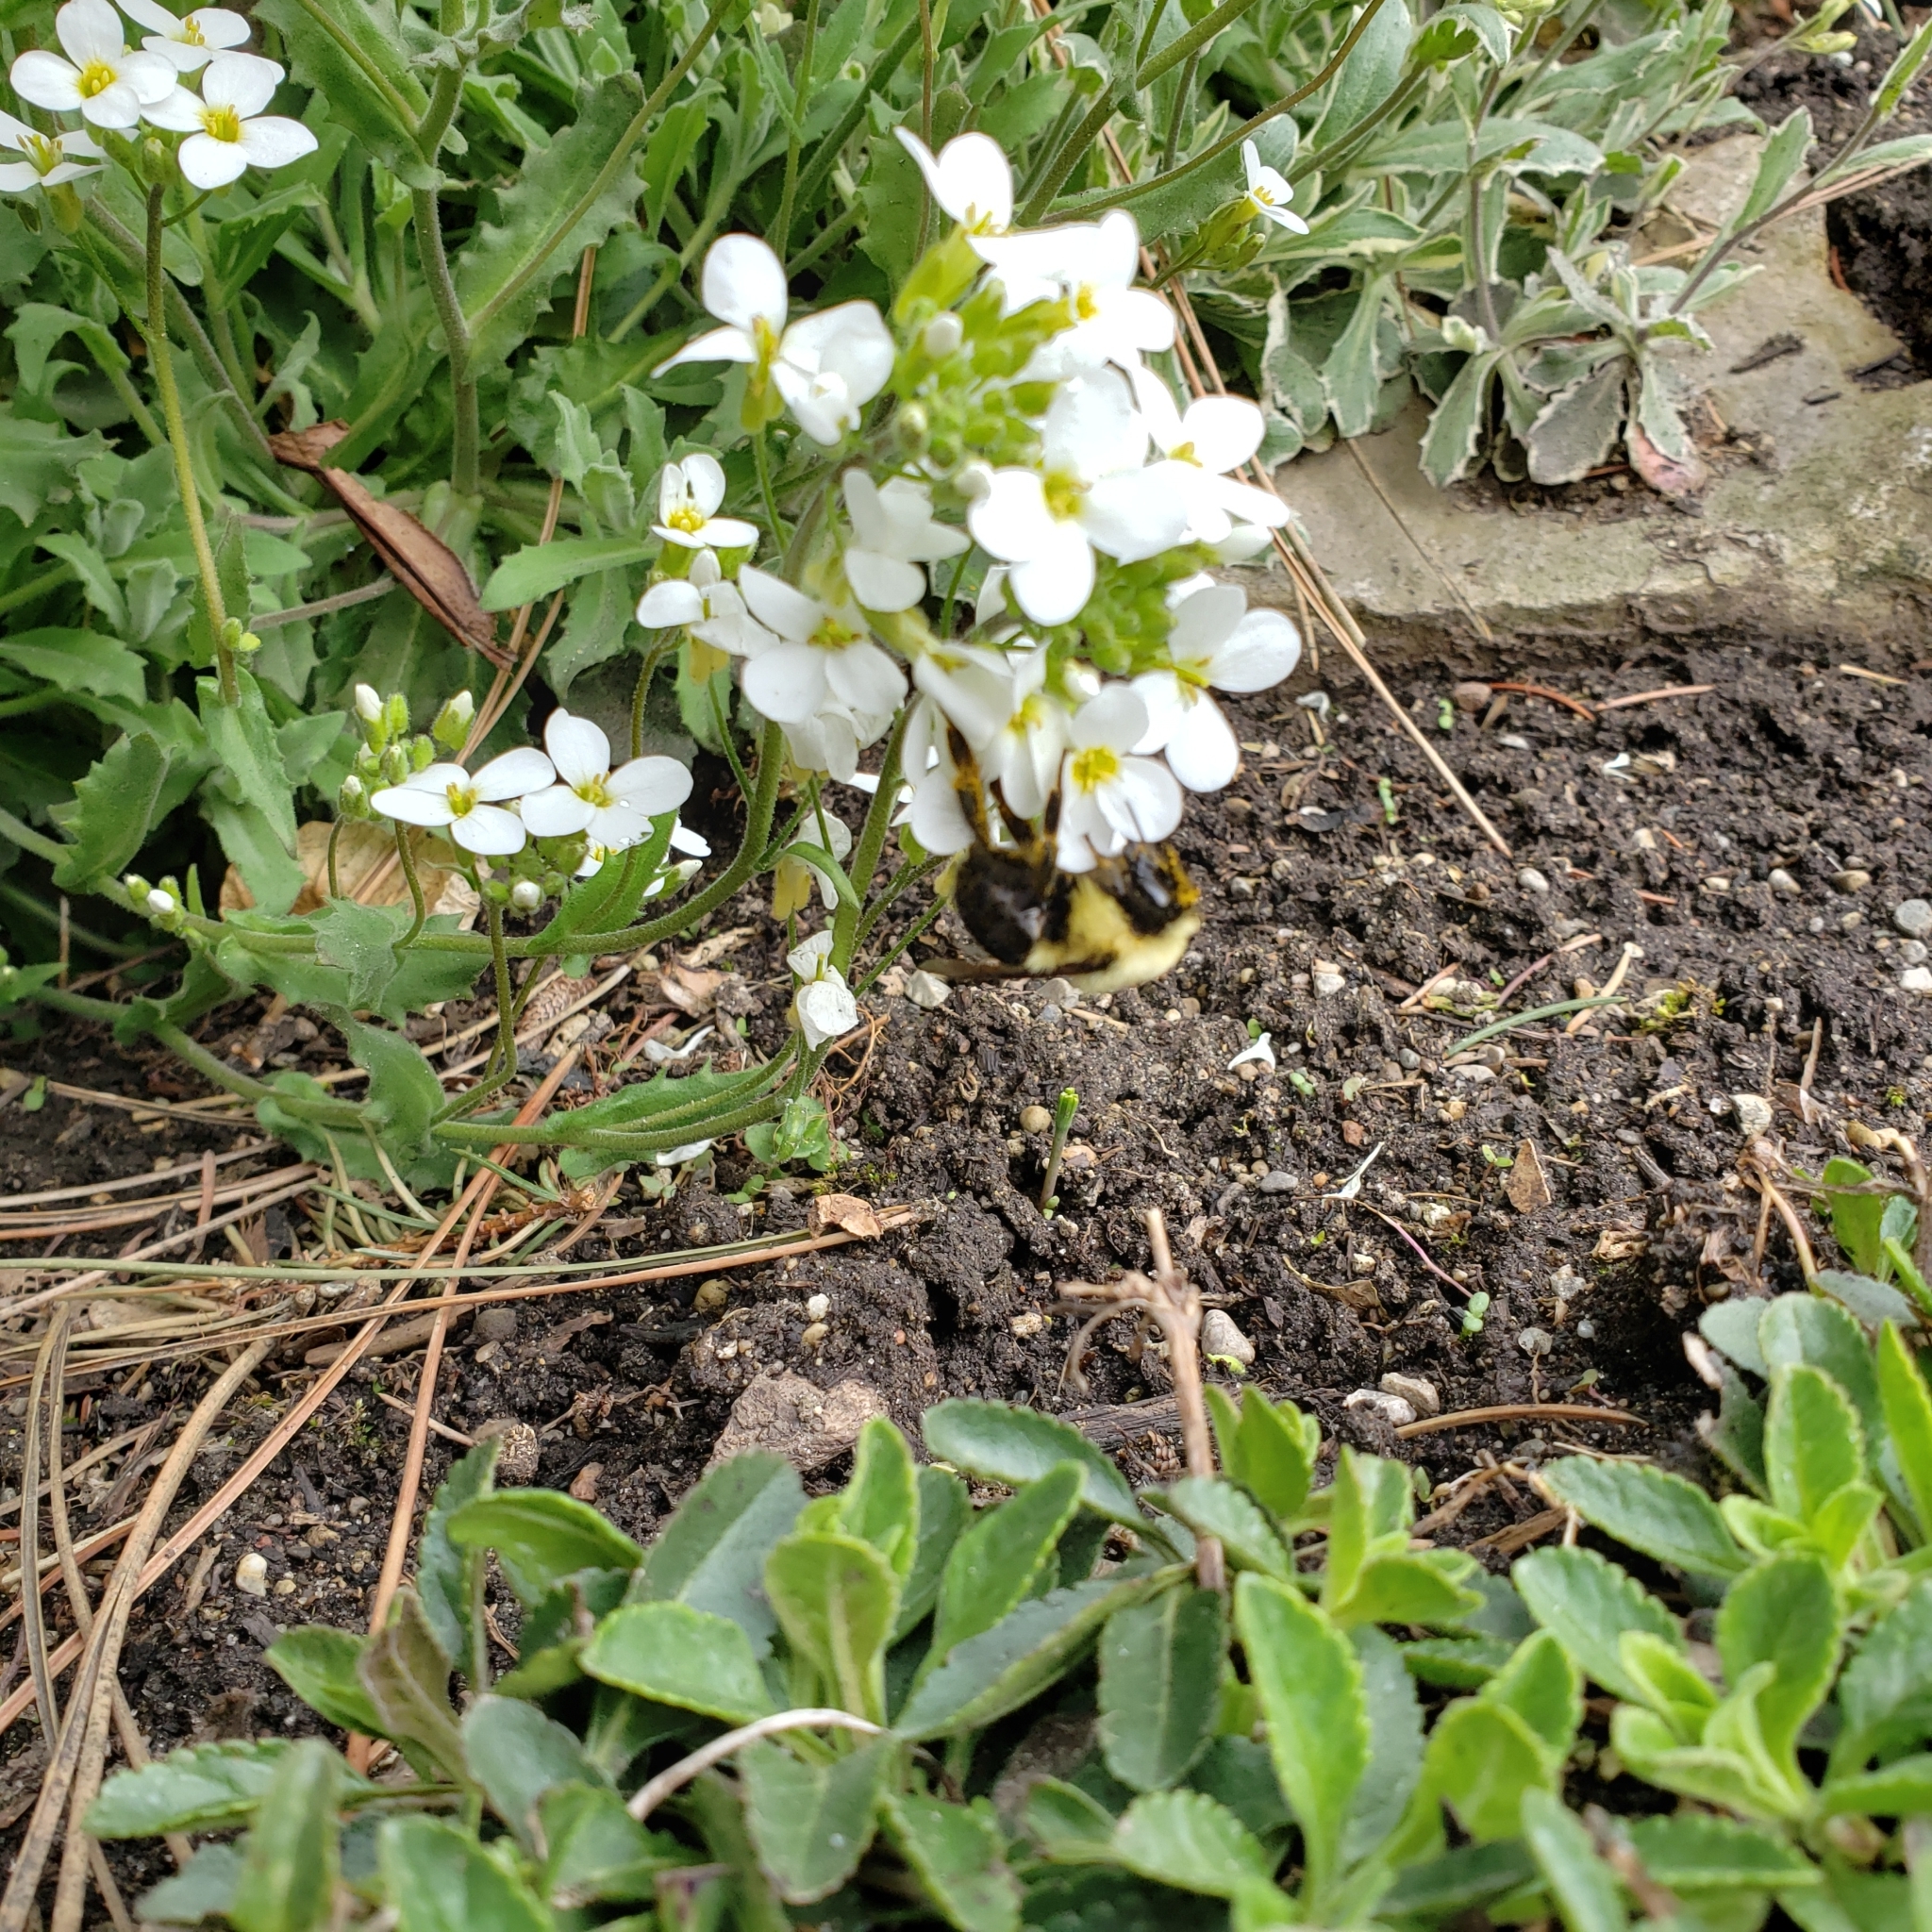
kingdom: Animalia
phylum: Arthropoda
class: Insecta
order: Hymenoptera
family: Apidae
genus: Pyrobombus
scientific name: Pyrobombus
